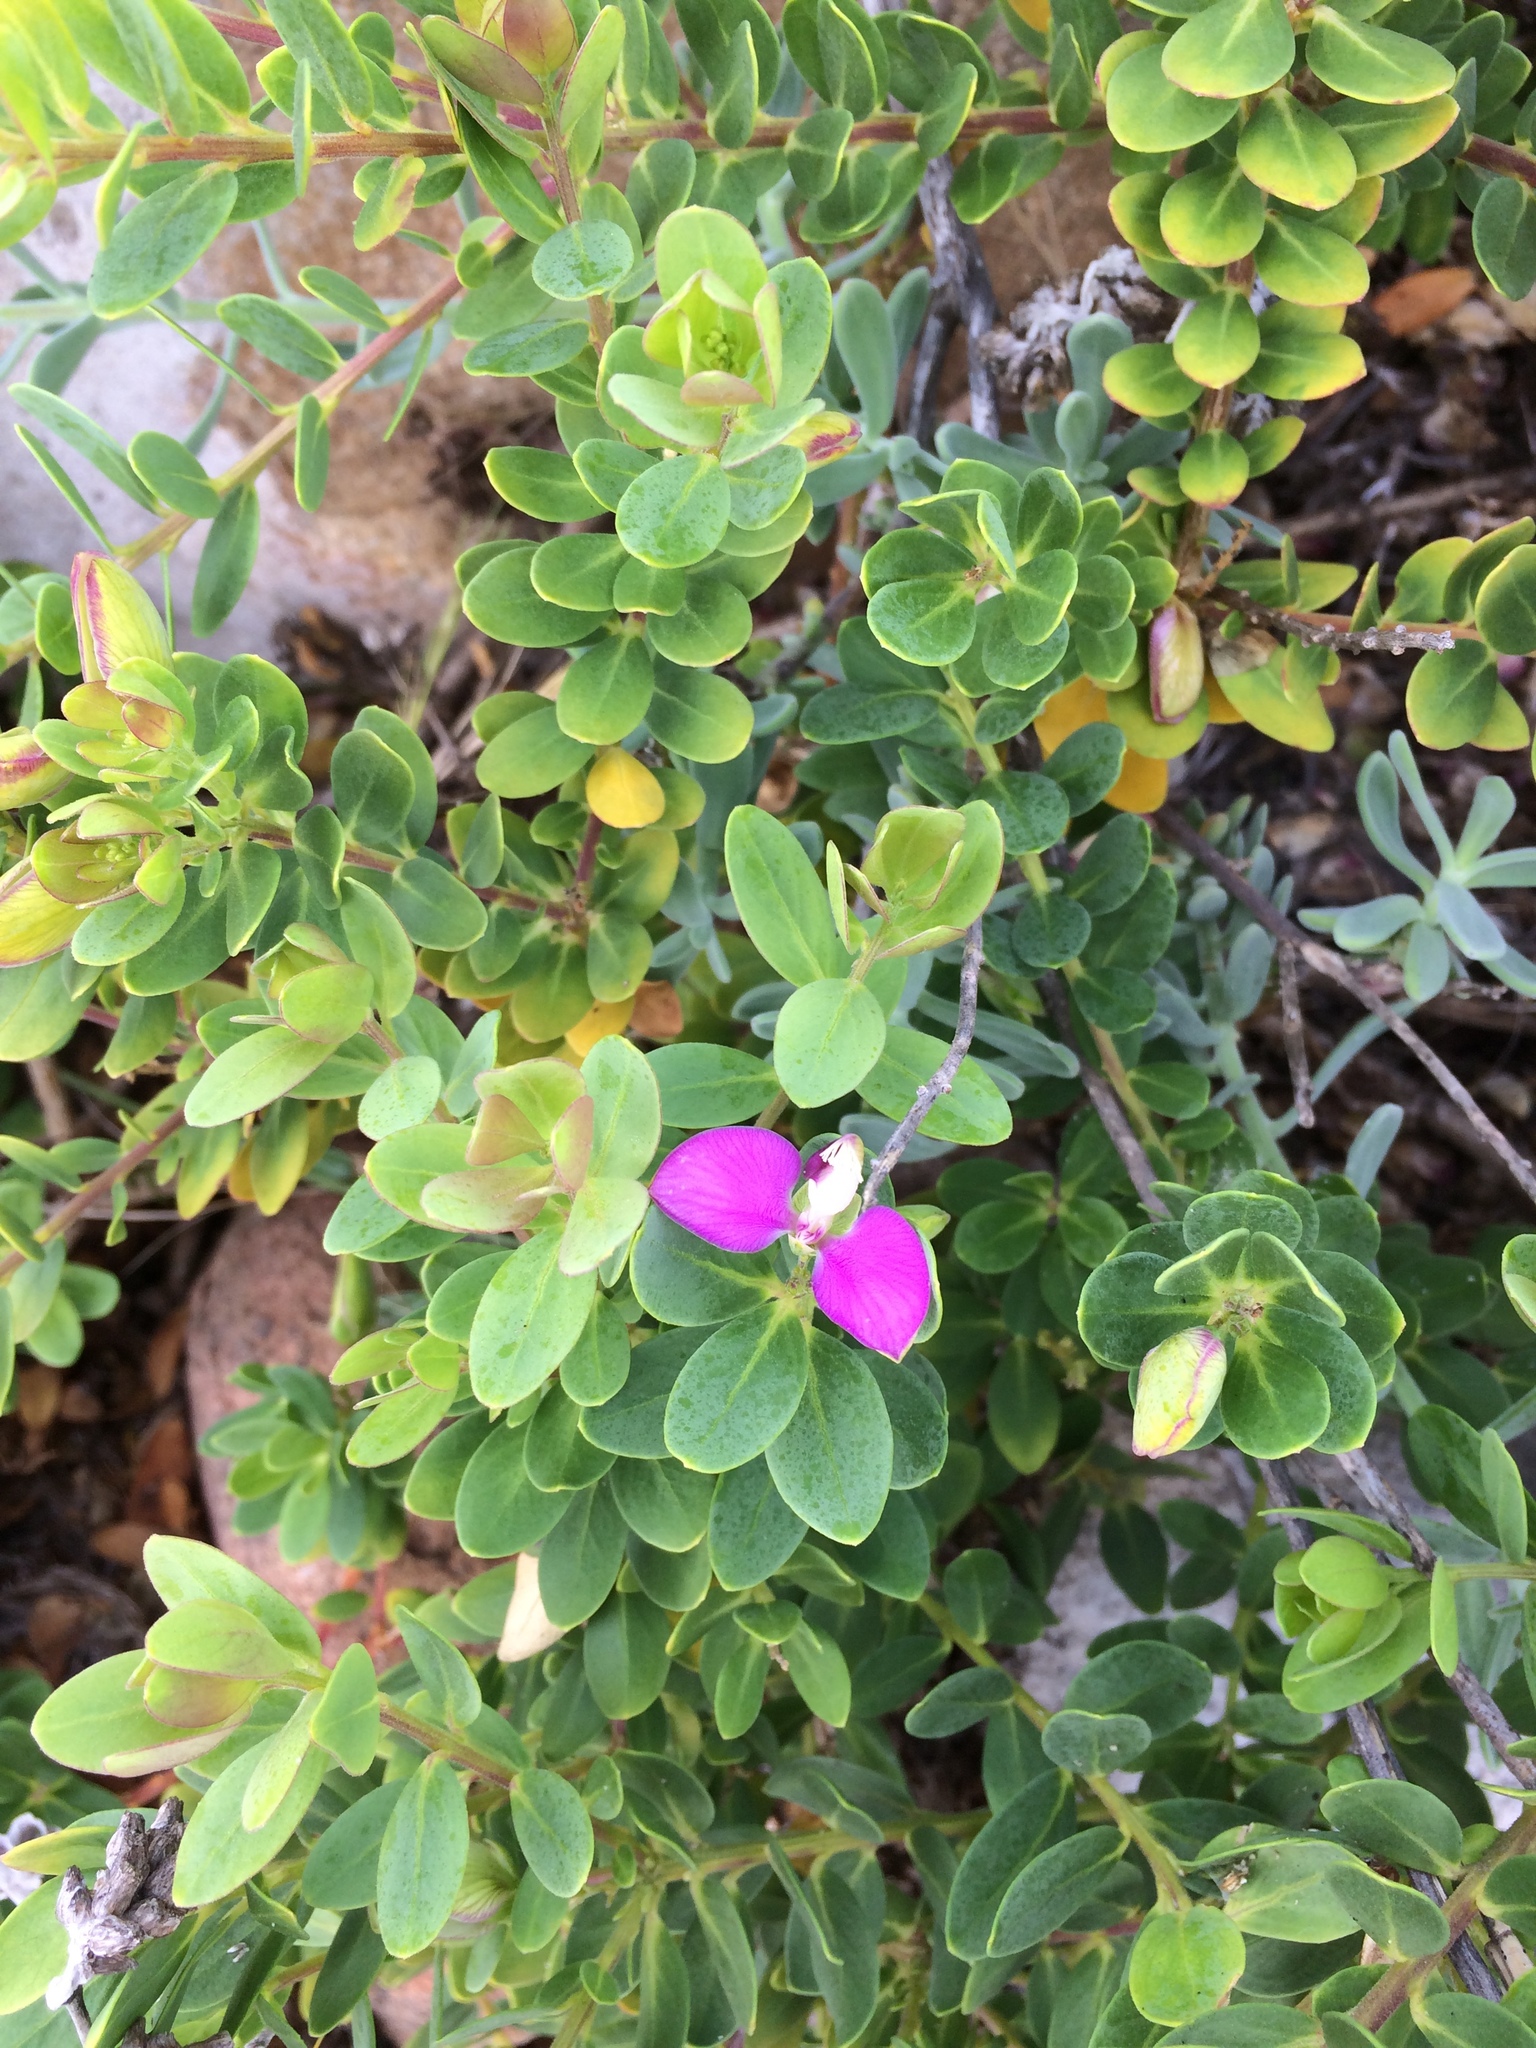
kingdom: Plantae
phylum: Tracheophyta
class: Magnoliopsida
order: Fabales
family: Polygalaceae
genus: Polygala
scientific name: Polygala myrtifolia
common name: Myrtle-leaf milkwort
